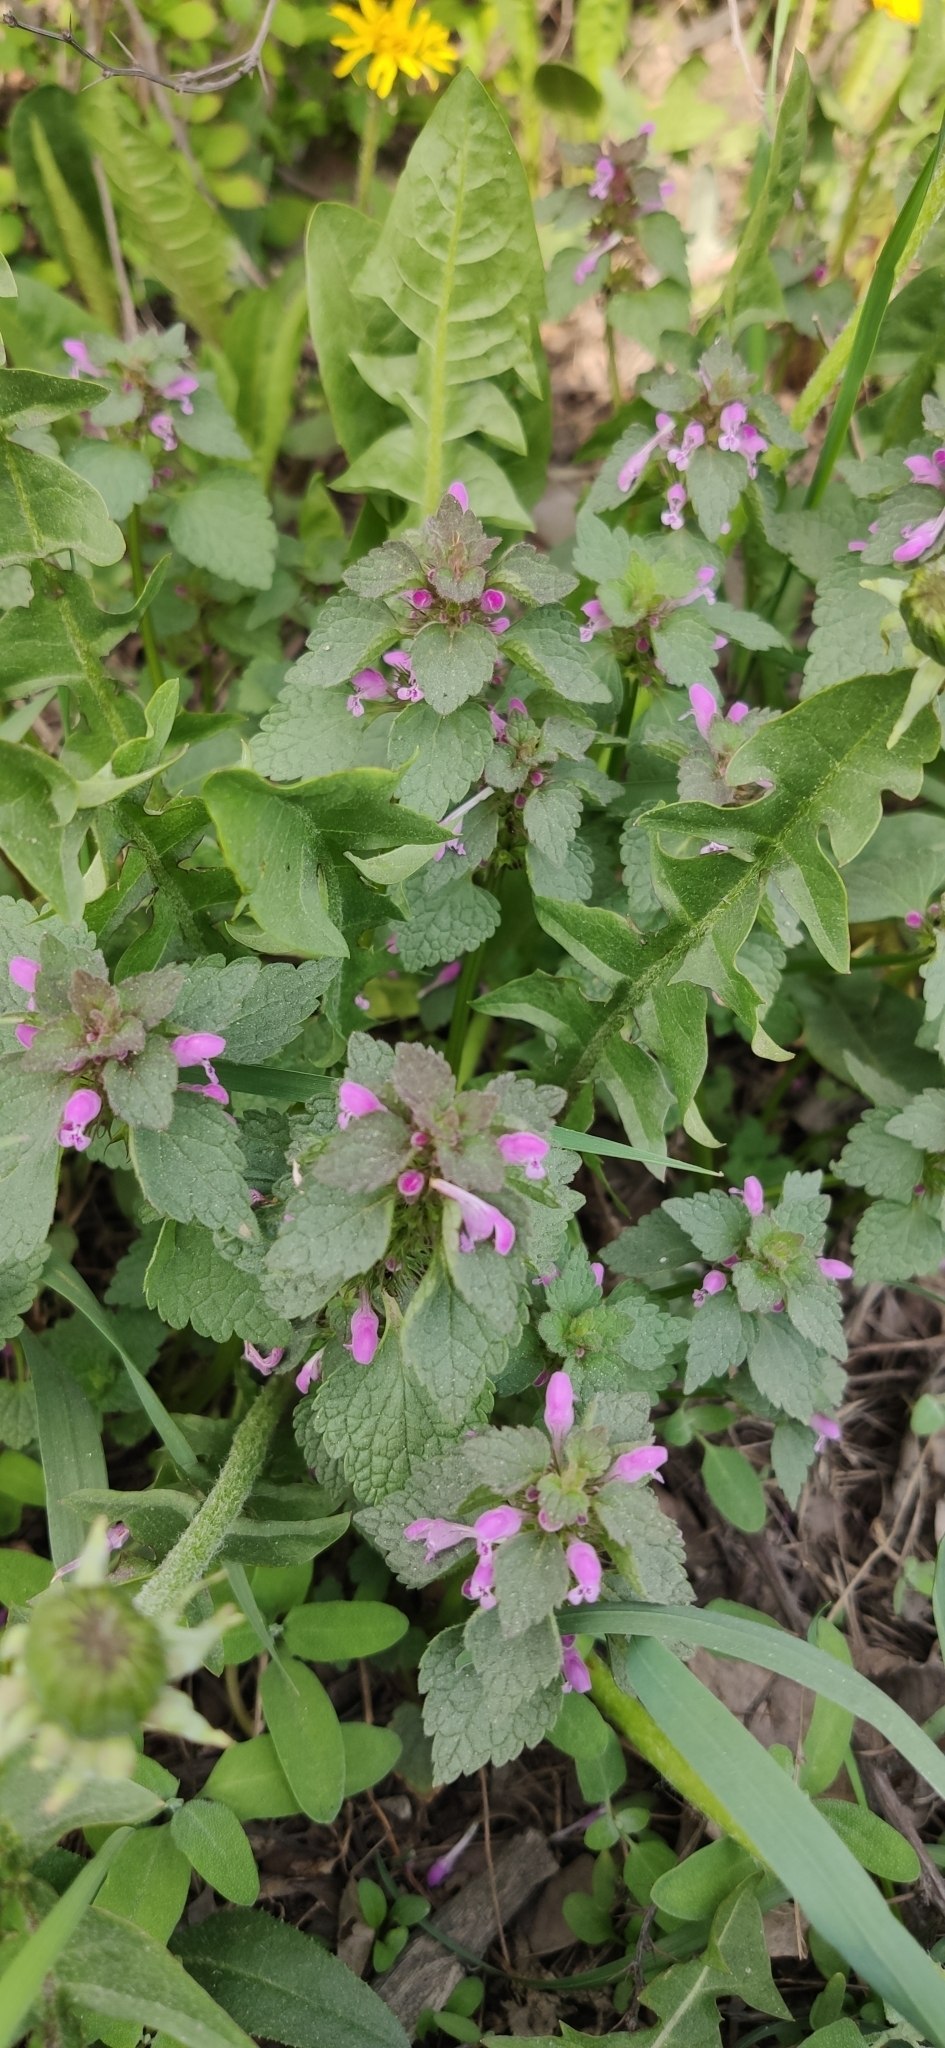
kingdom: Plantae
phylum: Tracheophyta
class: Magnoliopsida
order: Lamiales
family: Lamiaceae
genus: Lamium
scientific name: Lamium purpureum
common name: Red dead-nettle
